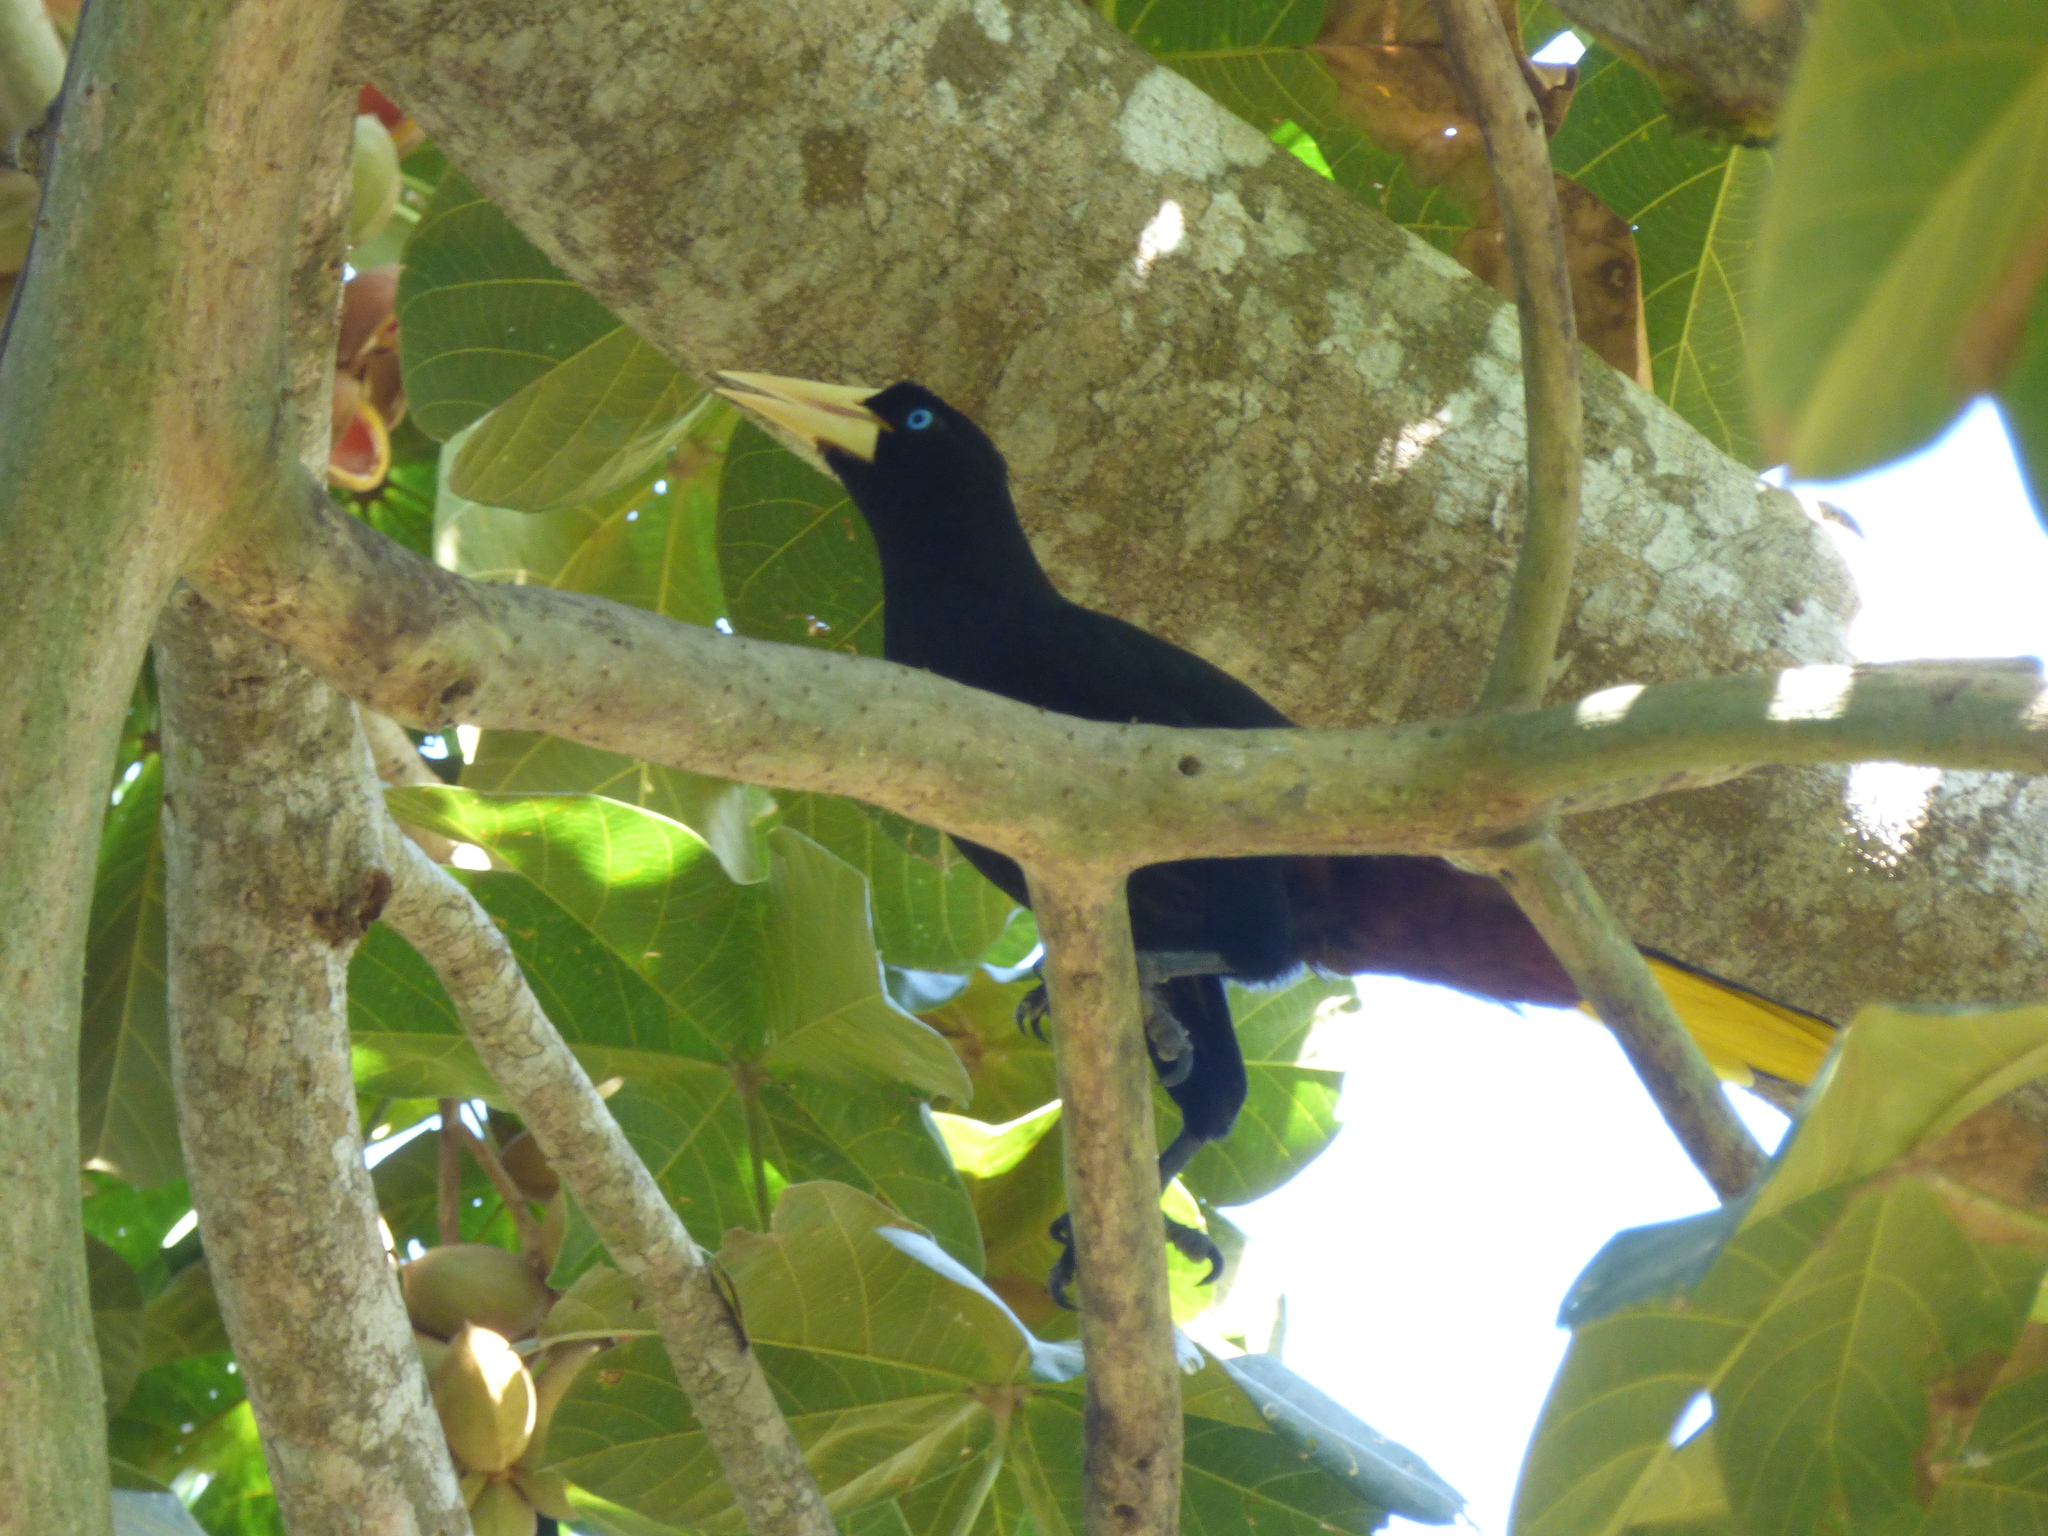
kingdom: Animalia
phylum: Chordata
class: Aves
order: Passeriformes
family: Icteridae
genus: Psarocolius
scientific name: Psarocolius decumanus
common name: Crested oropendola
